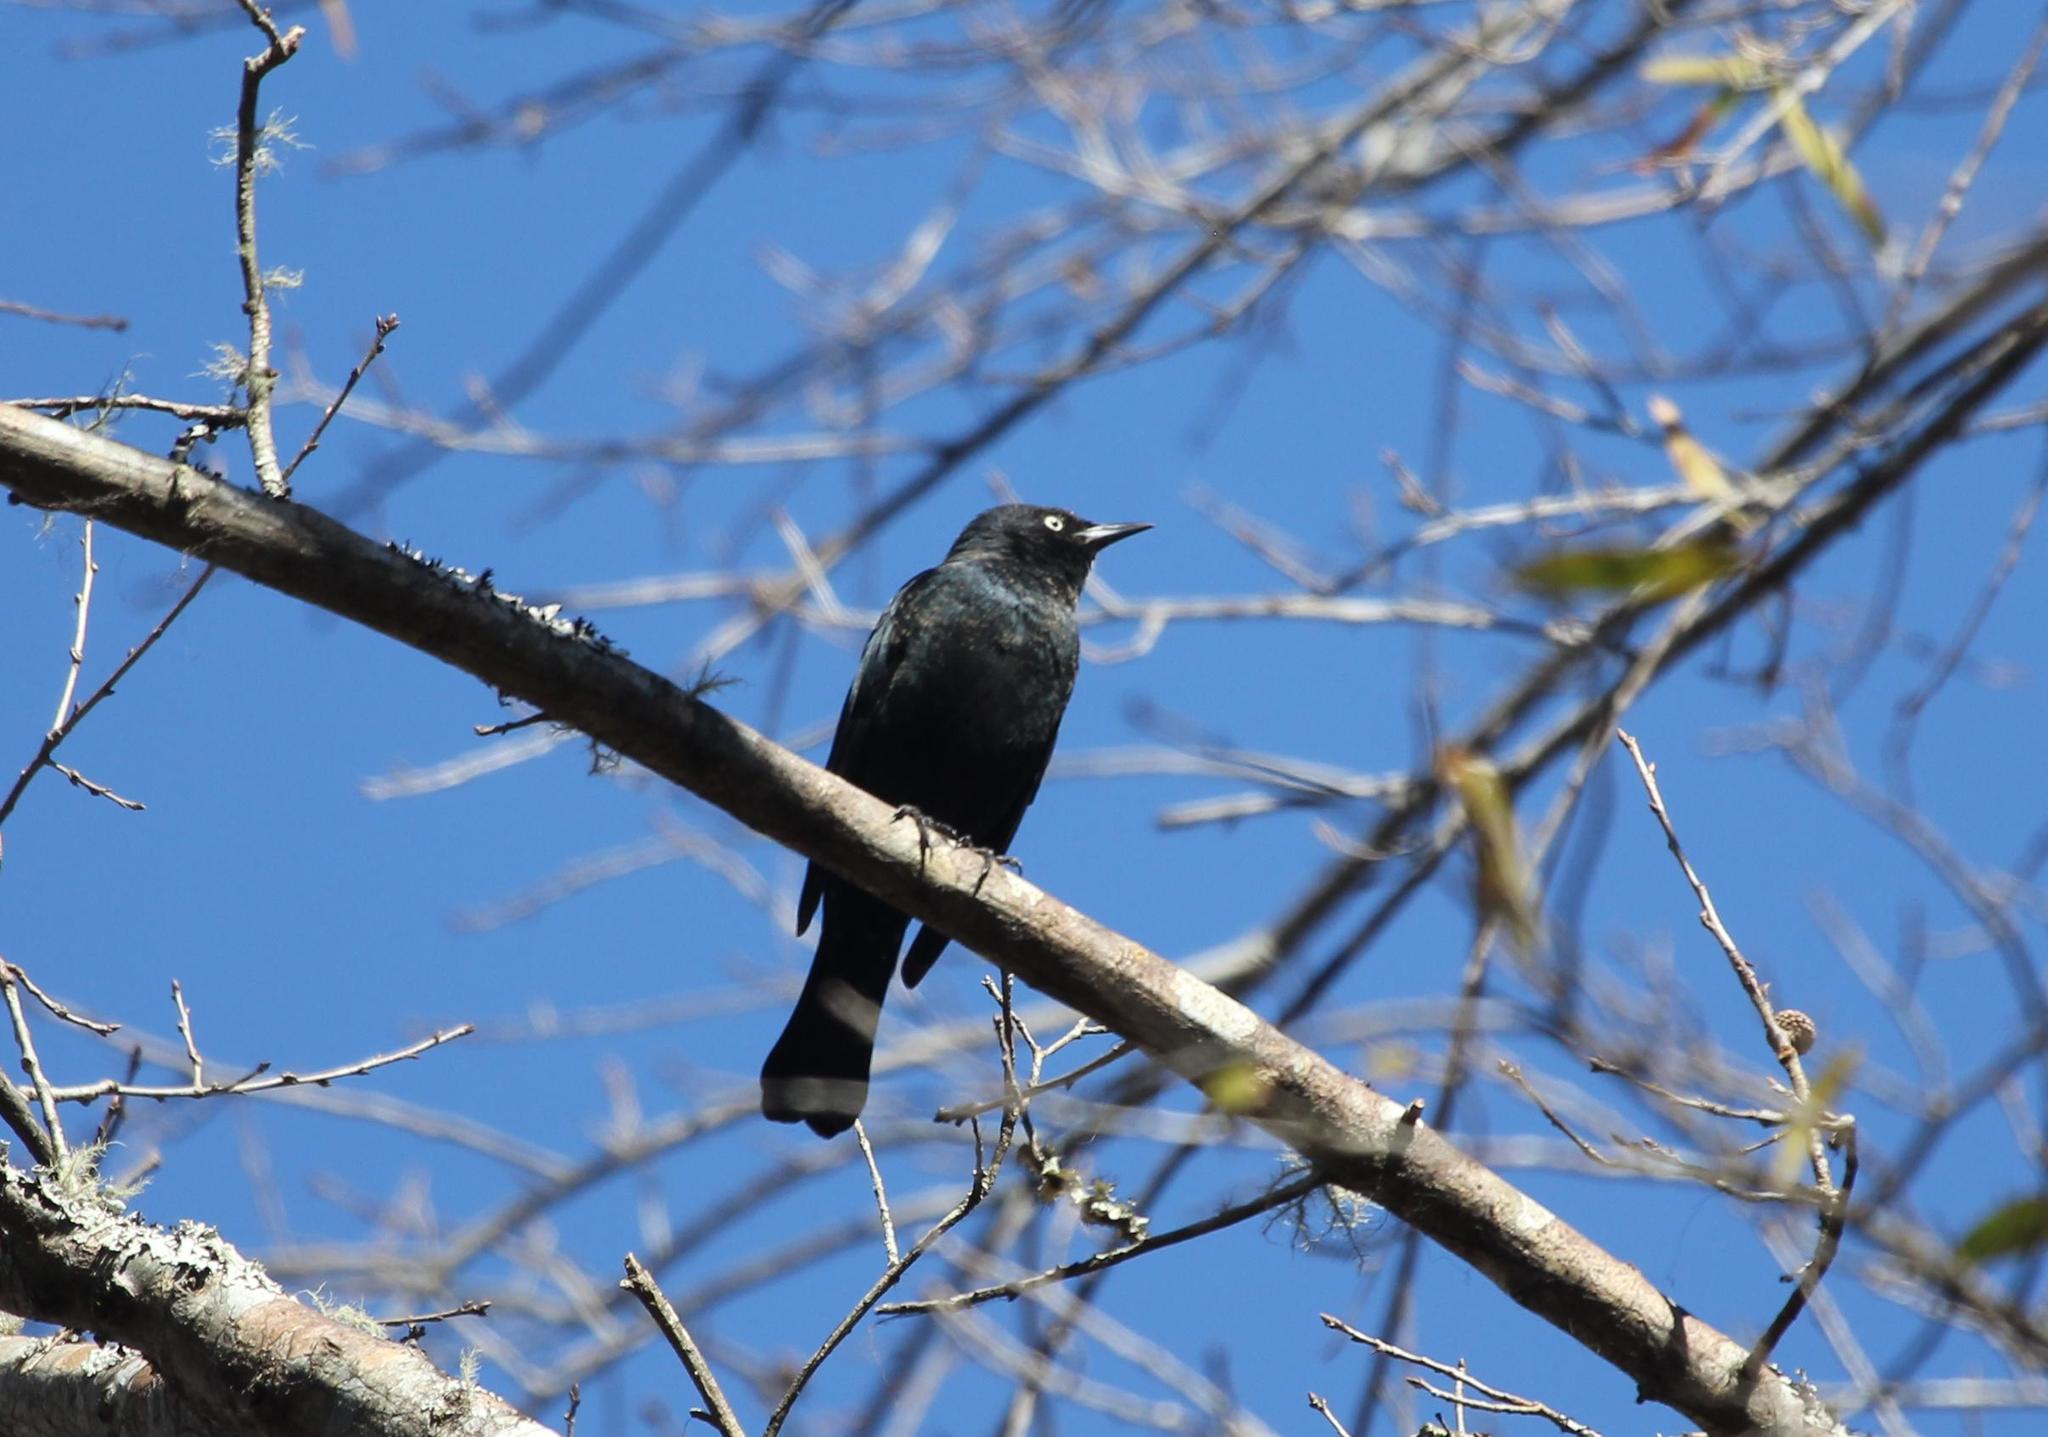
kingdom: Animalia
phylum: Chordata
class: Aves
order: Passeriformes
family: Icteridae
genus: Euphagus
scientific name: Euphagus carolinus
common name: Rusty blackbird
